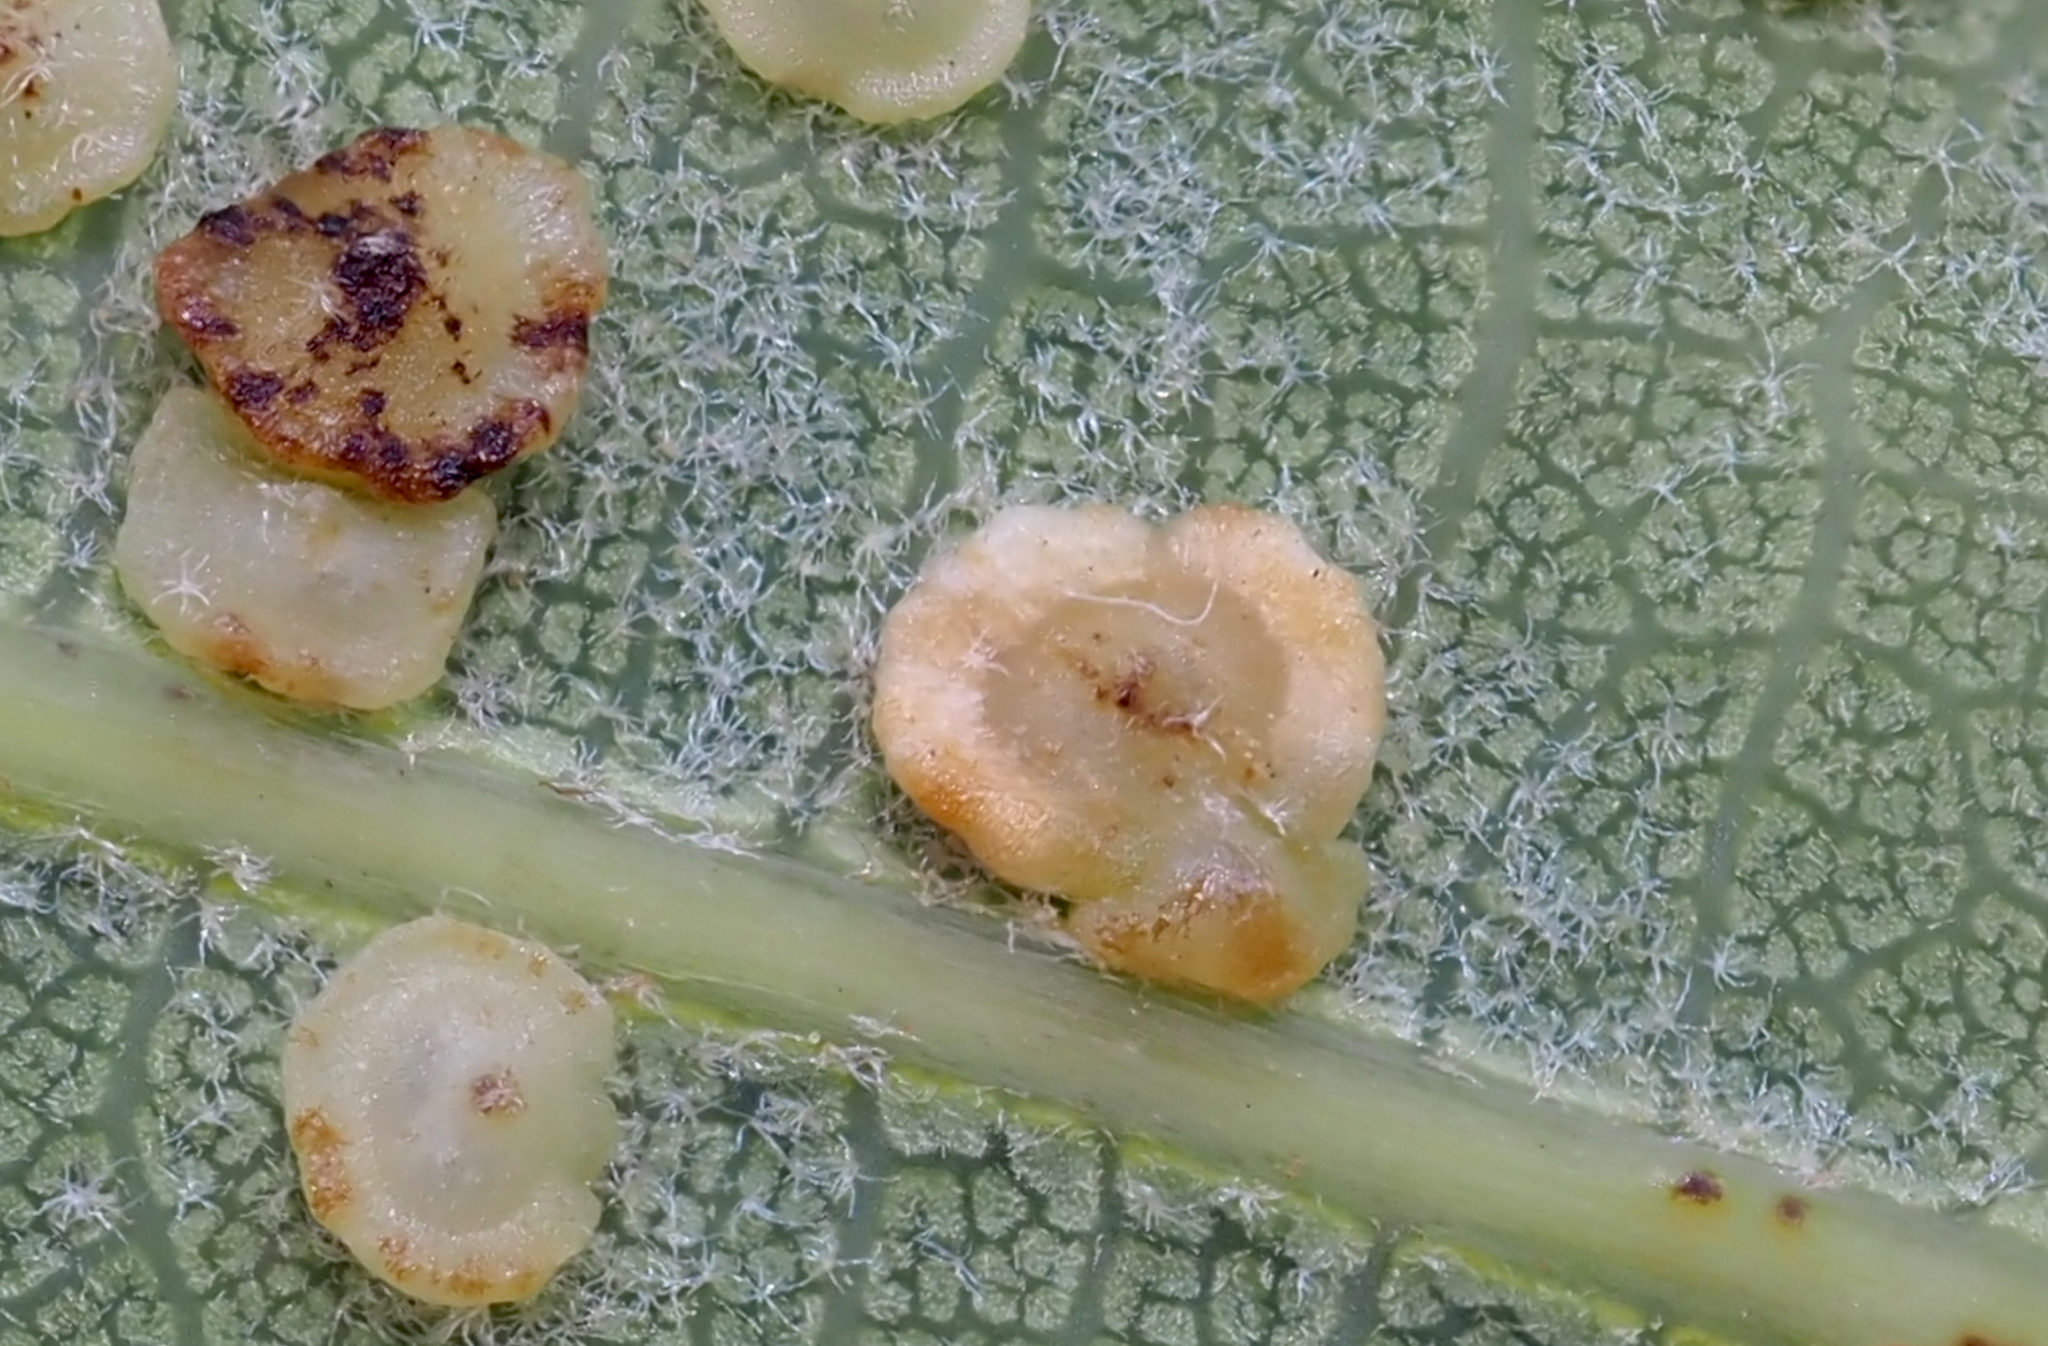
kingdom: Animalia
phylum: Arthropoda
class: Insecta
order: Hymenoptera
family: Cynipidae
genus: Neuroterus
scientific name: Neuroterus
